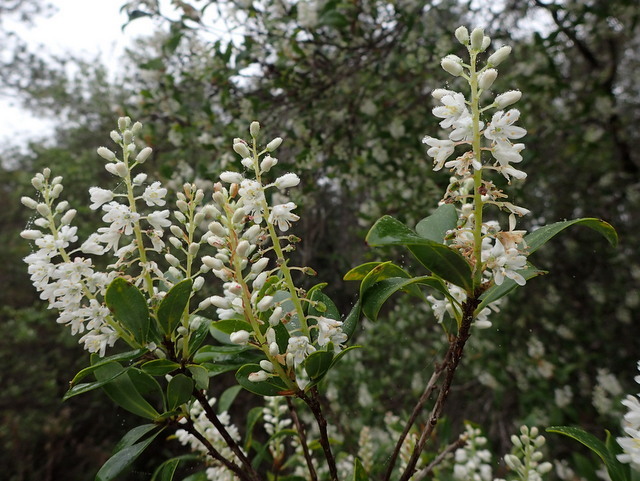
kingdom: Plantae
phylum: Tracheophyta
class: Magnoliopsida
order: Ericales
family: Cyrillaceae
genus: Cliftonia
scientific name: Cliftonia monophylla
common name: Titi
